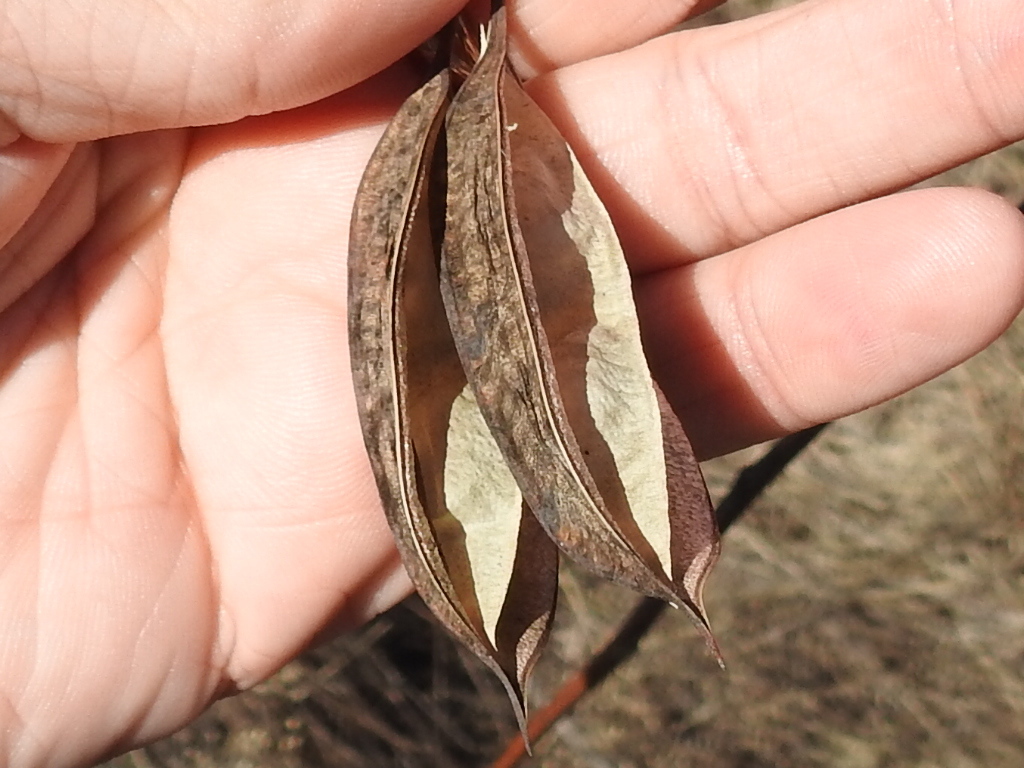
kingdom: Plantae
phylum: Tracheophyta
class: Magnoliopsida
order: Fabales
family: Fabaceae
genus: Sesbania
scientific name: Sesbania vesicaria
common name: Bagpod
